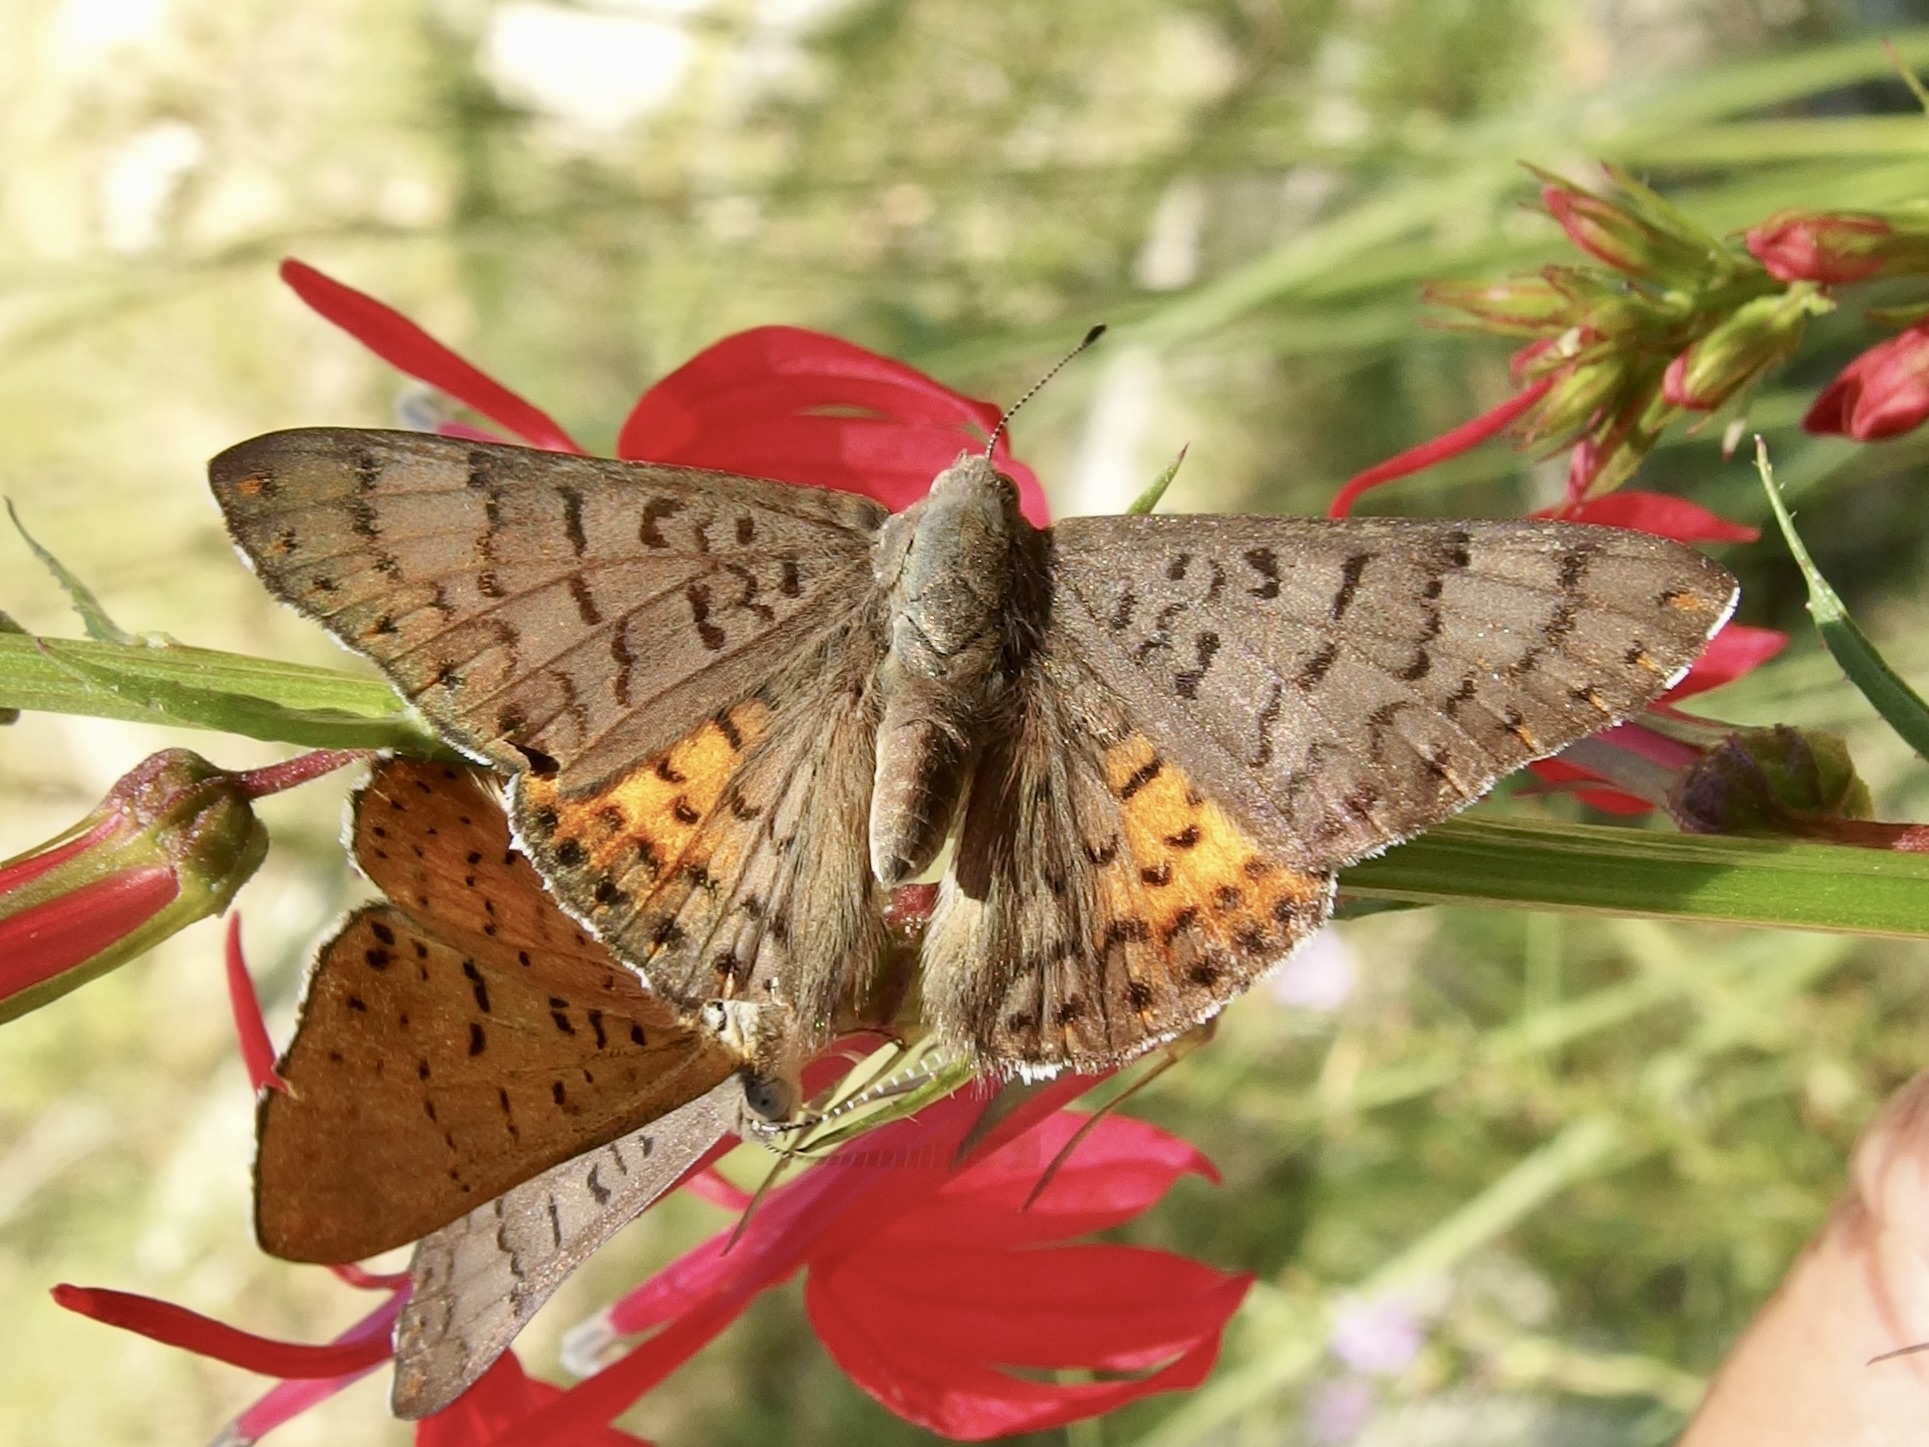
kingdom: Animalia
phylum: Arthropoda
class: Insecta
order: Lepidoptera
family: Riodinidae
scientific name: Riodinidae
